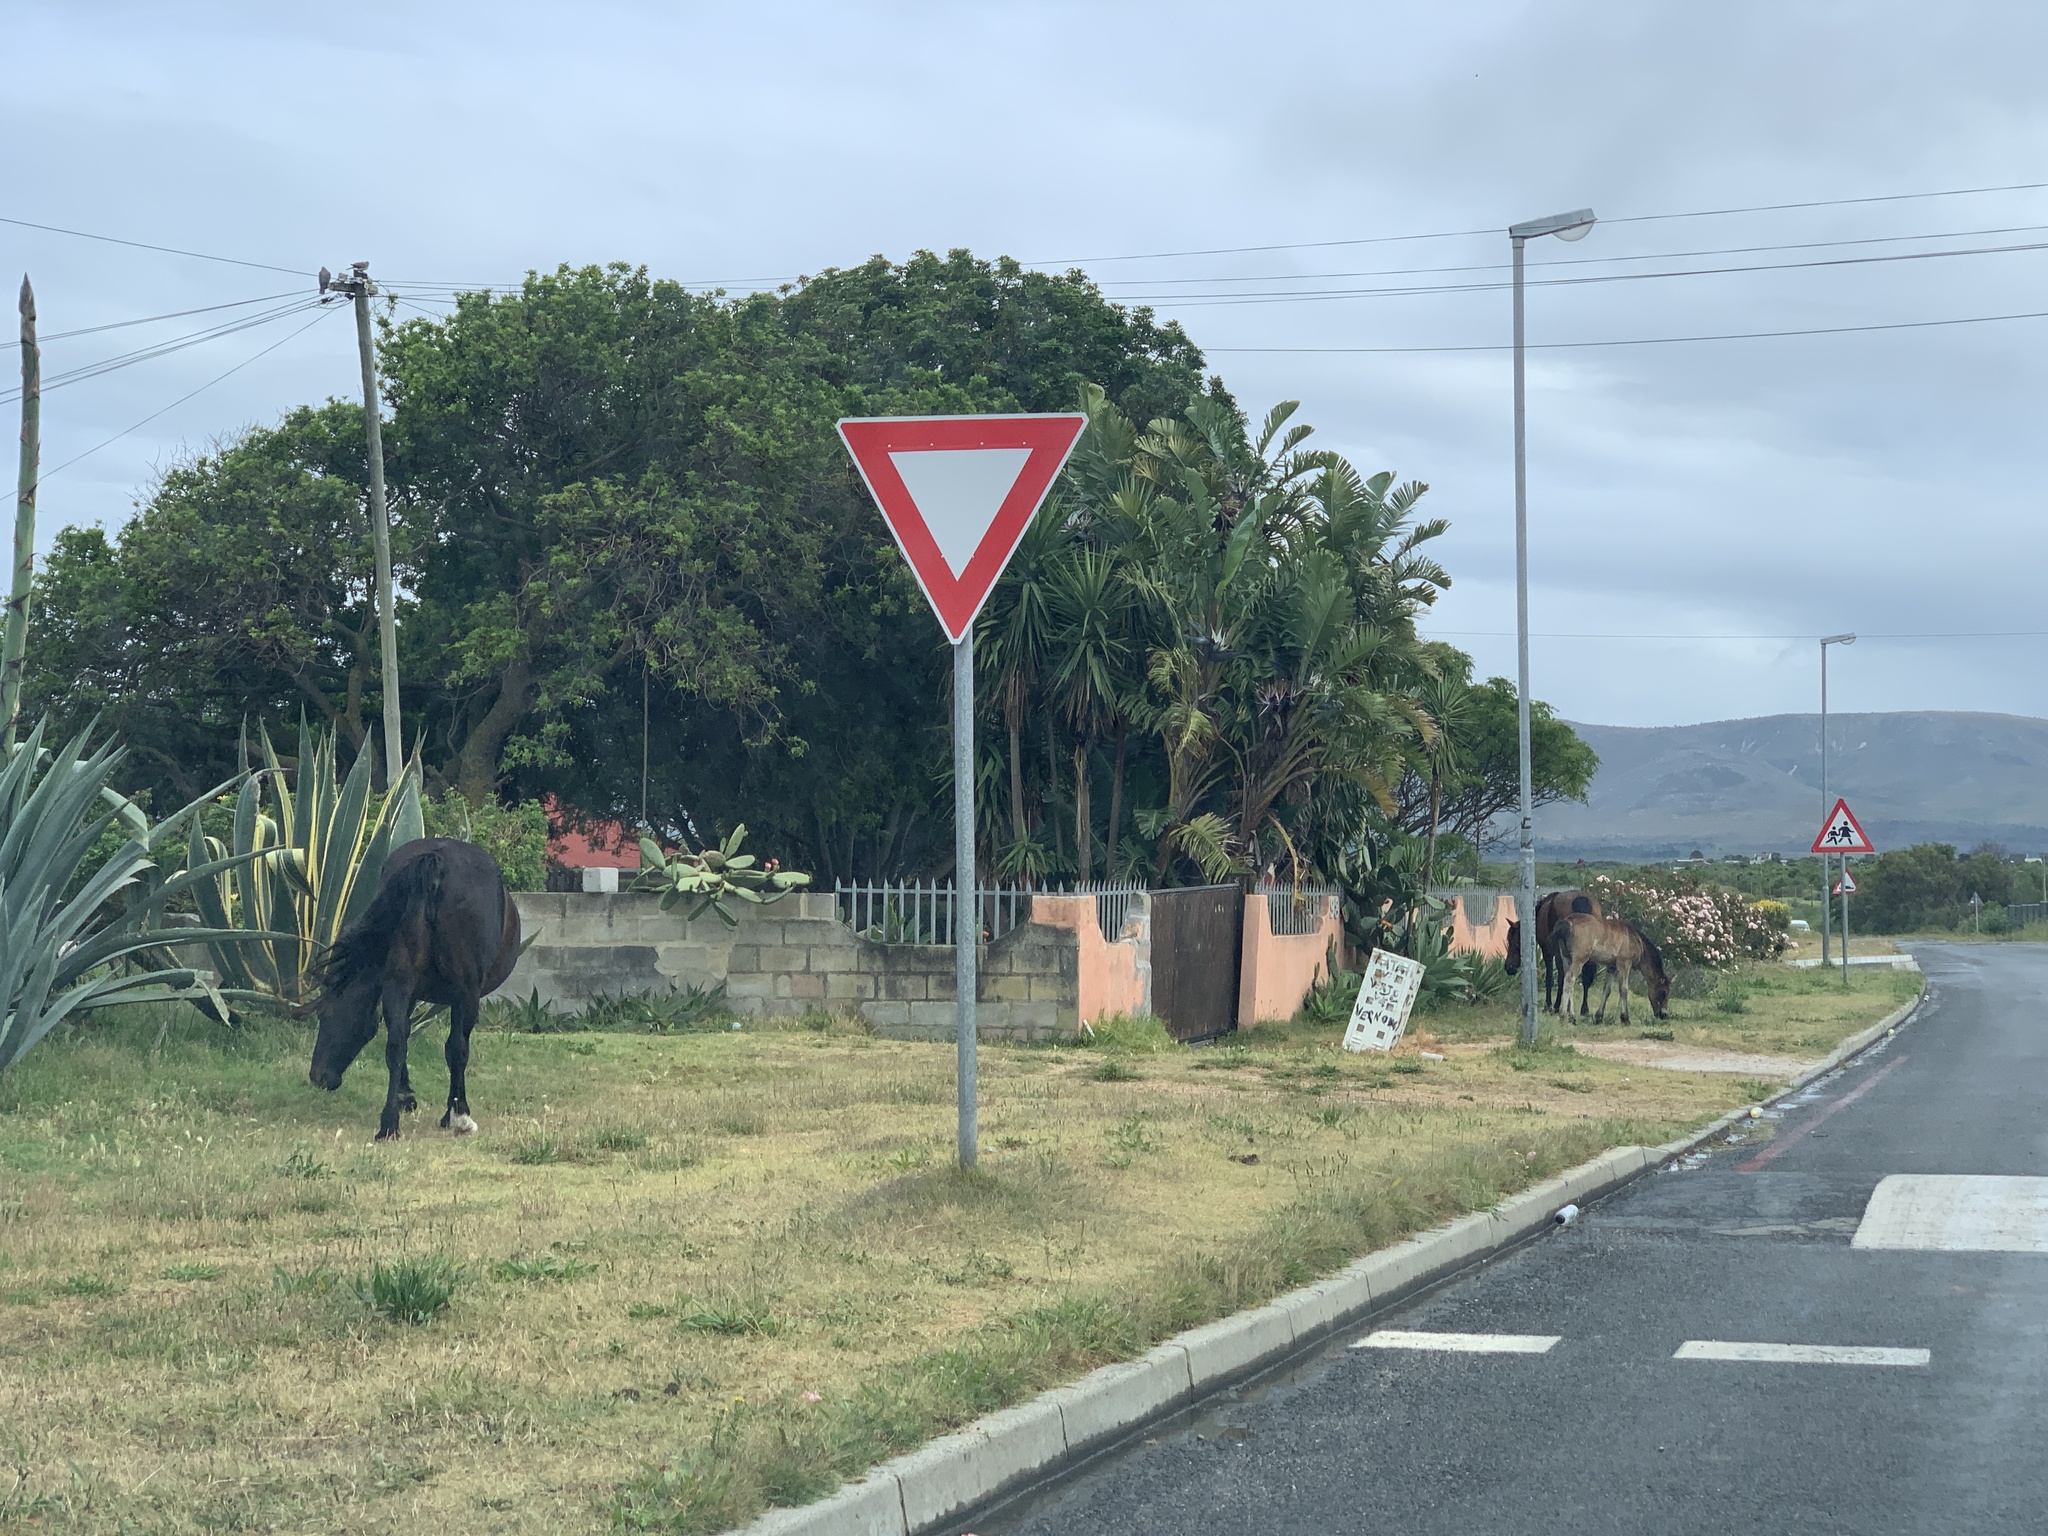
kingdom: Animalia
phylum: Chordata
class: Mammalia
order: Perissodactyla
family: Equidae
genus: Equus
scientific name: Equus caballus
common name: Horse
